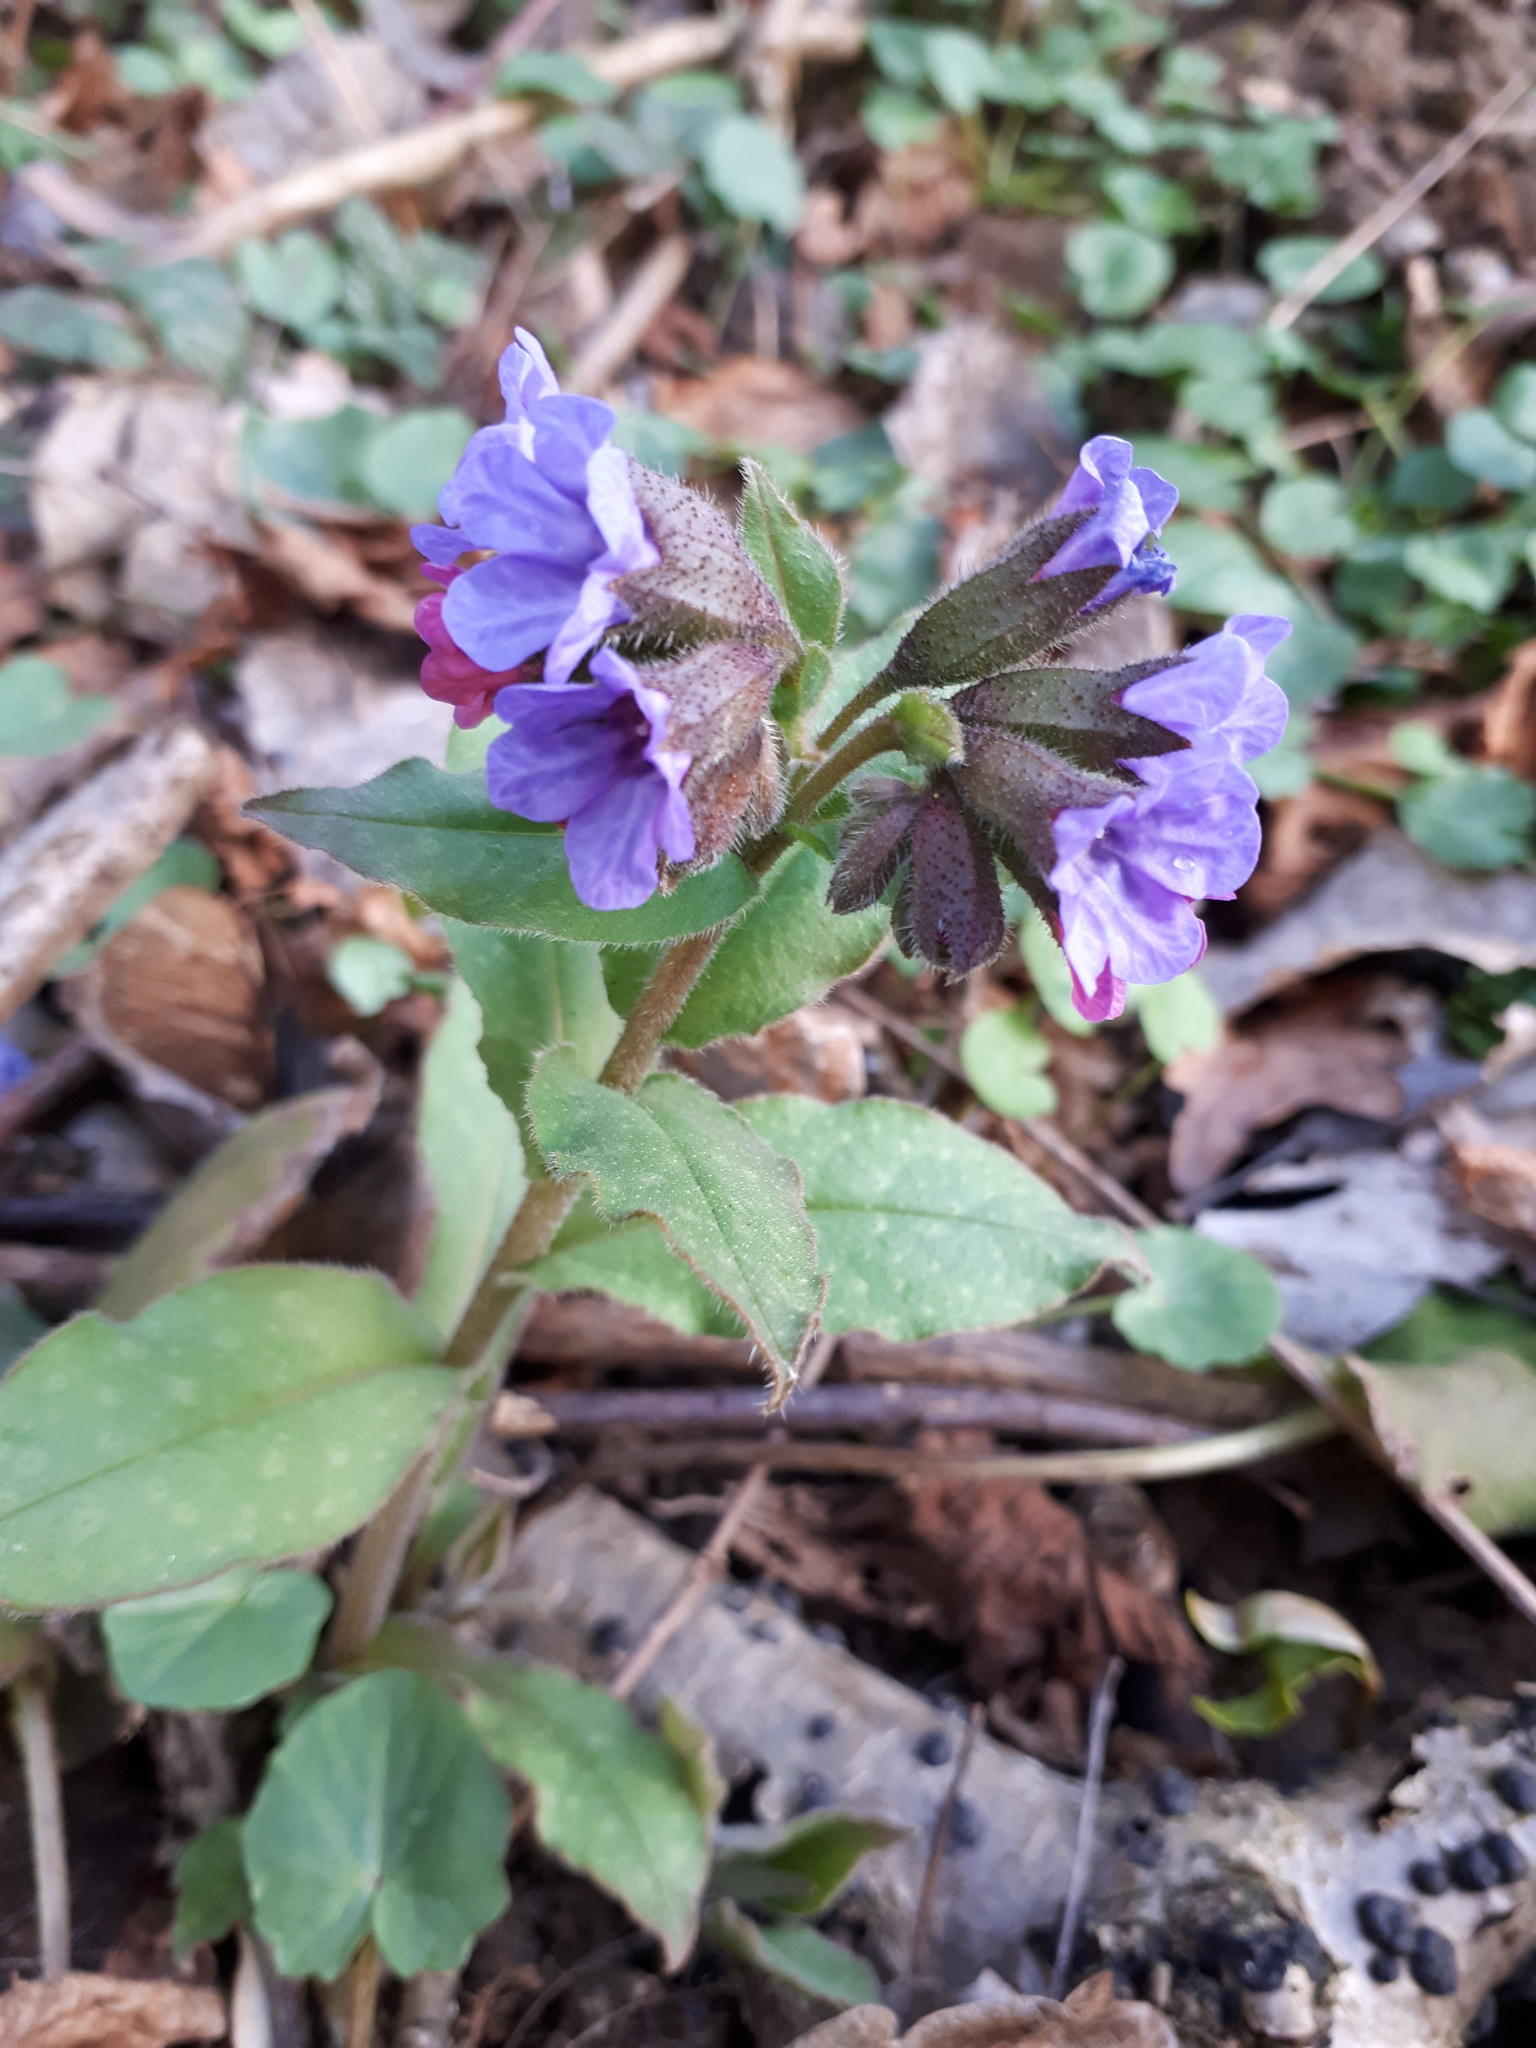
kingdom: Plantae
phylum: Tracheophyta
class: Magnoliopsida
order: Boraginales
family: Boraginaceae
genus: Pulmonaria
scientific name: Pulmonaria officinalis
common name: Lungwort
